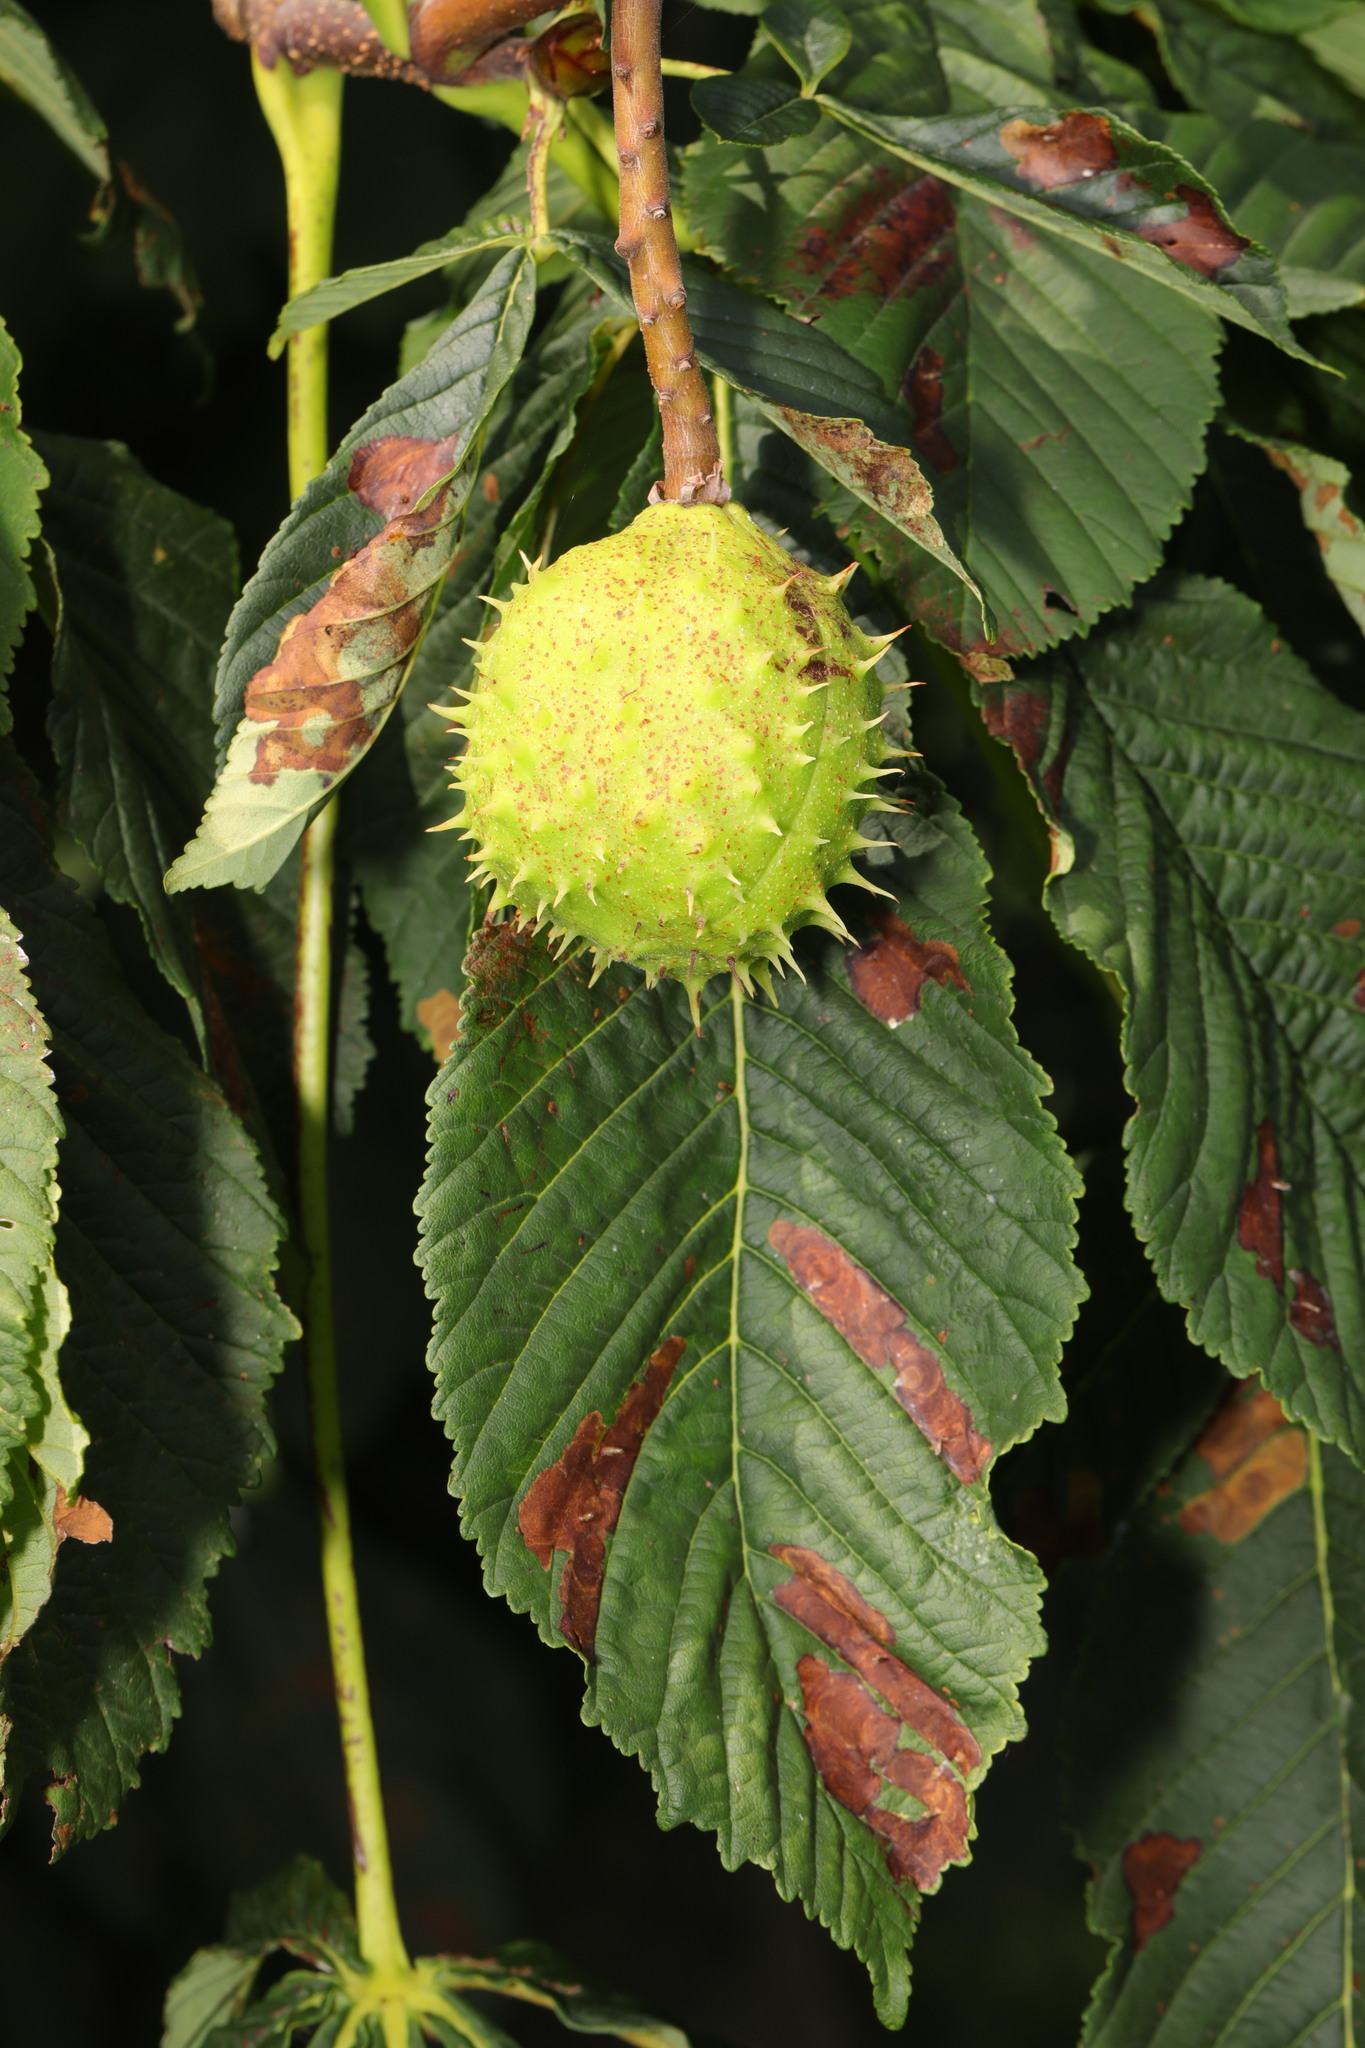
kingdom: Plantae
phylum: Tracheophyta
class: Magnoliopsida
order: Sapindales
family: Sapindaceae
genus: Aesculus
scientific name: Aesculus hippocastanum
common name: Horse-chestnut
